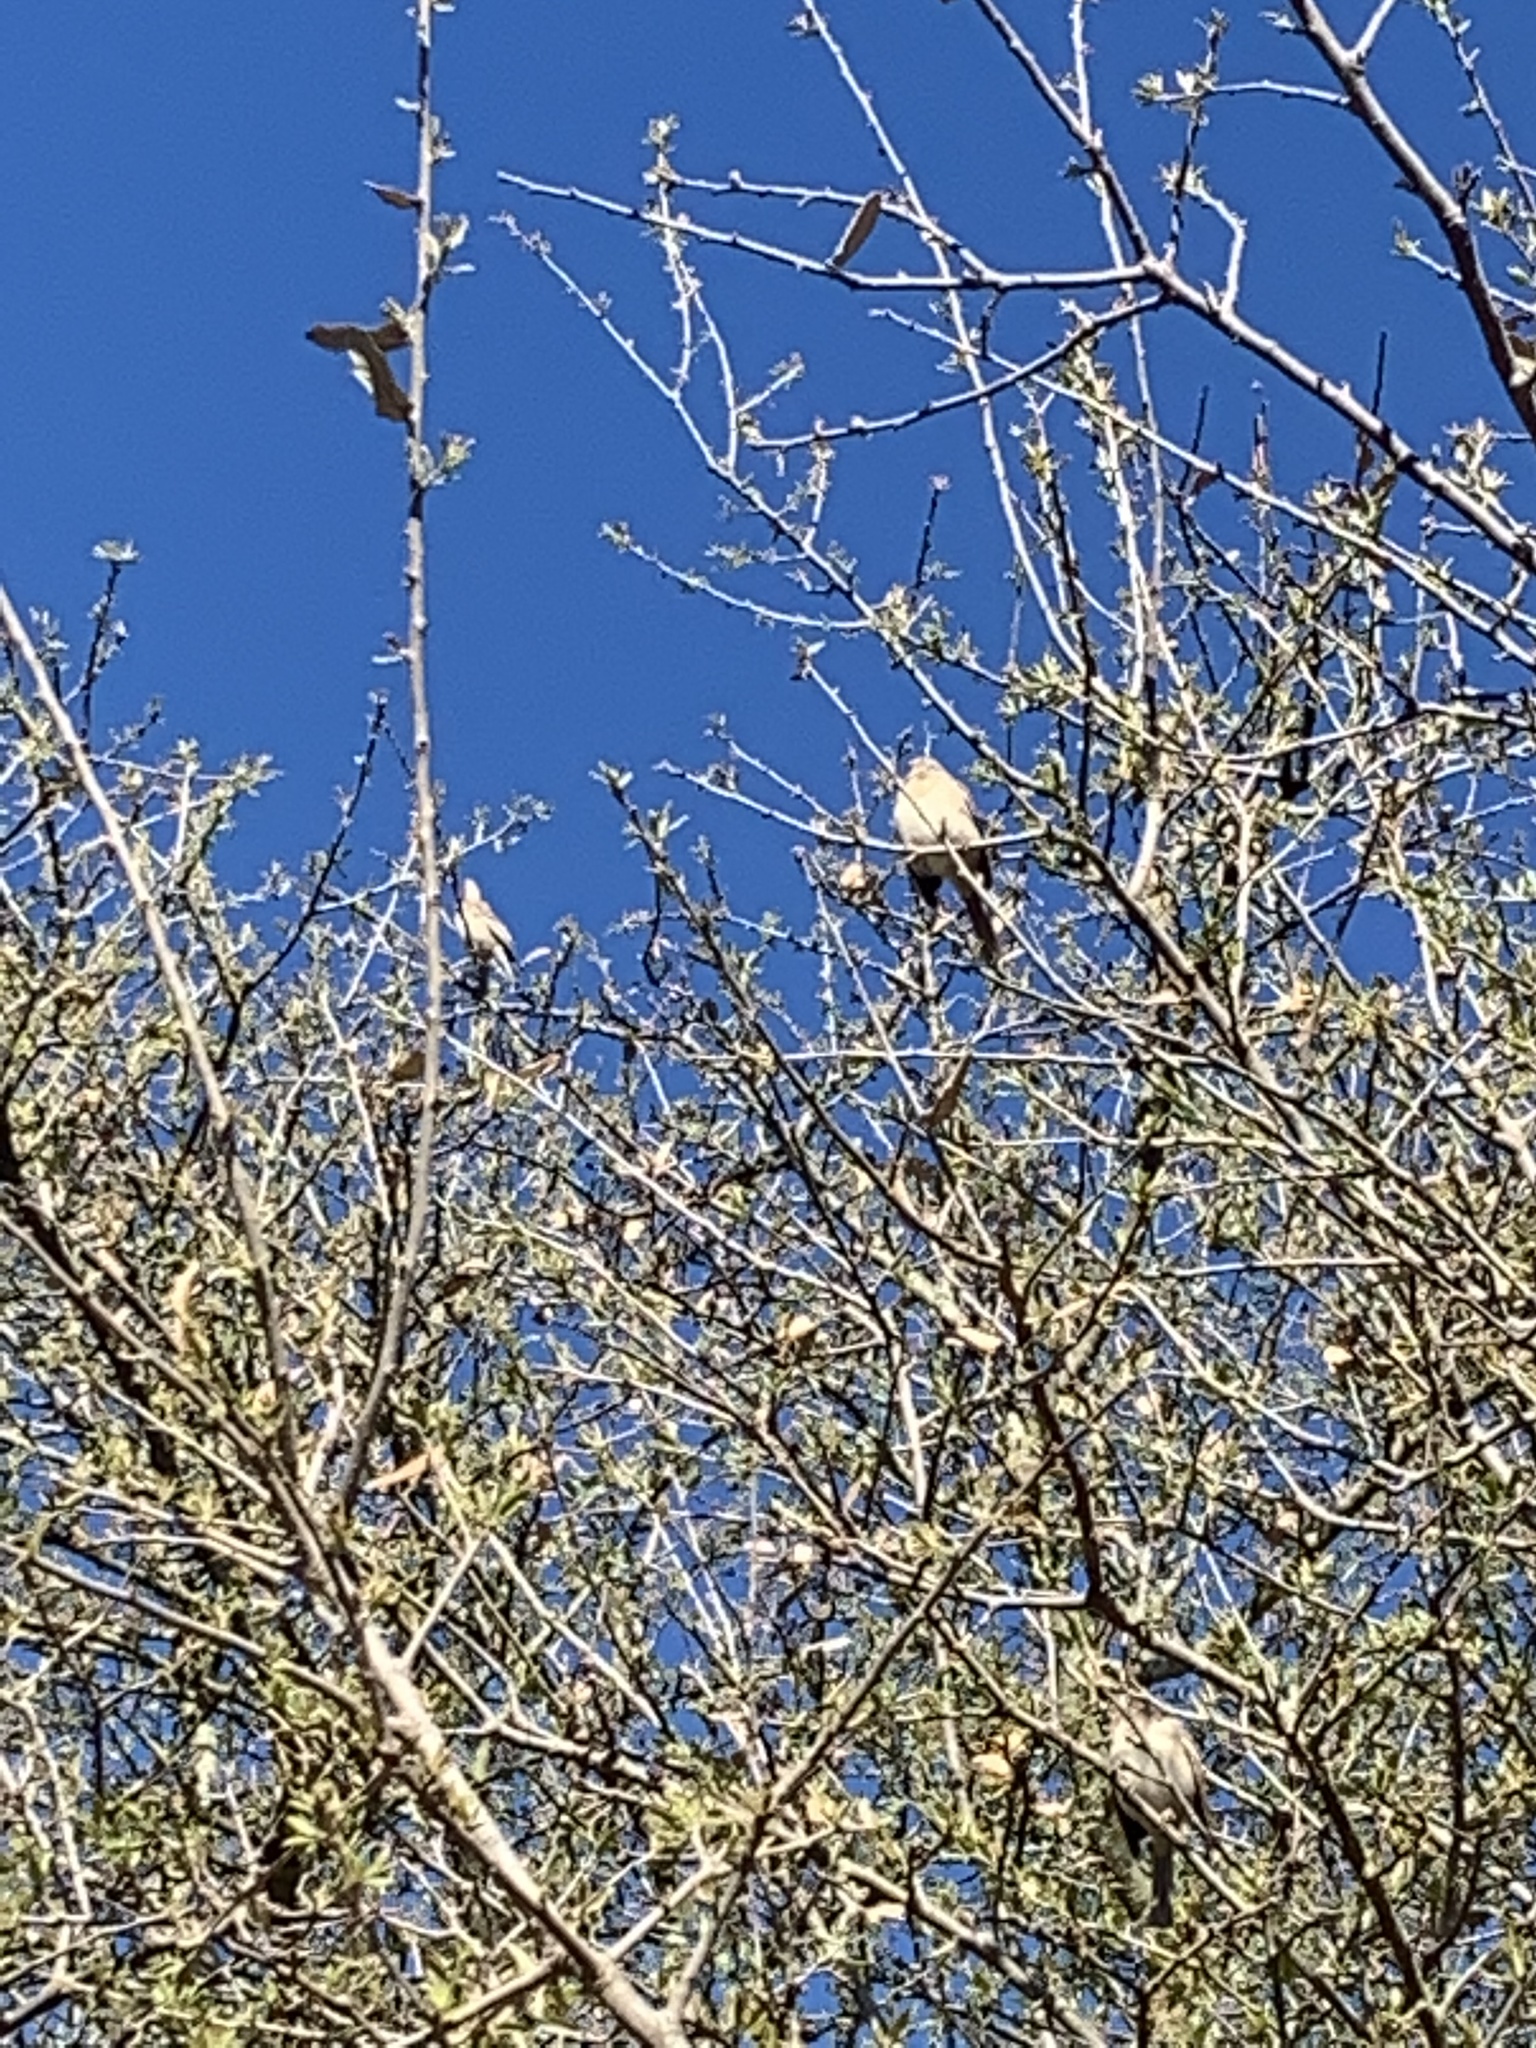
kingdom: Animalia
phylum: Chordata
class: Aves
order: Passeriformes
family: Mimidae
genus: Mimus
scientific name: Mimus polyglottos
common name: Northern mockingbird
